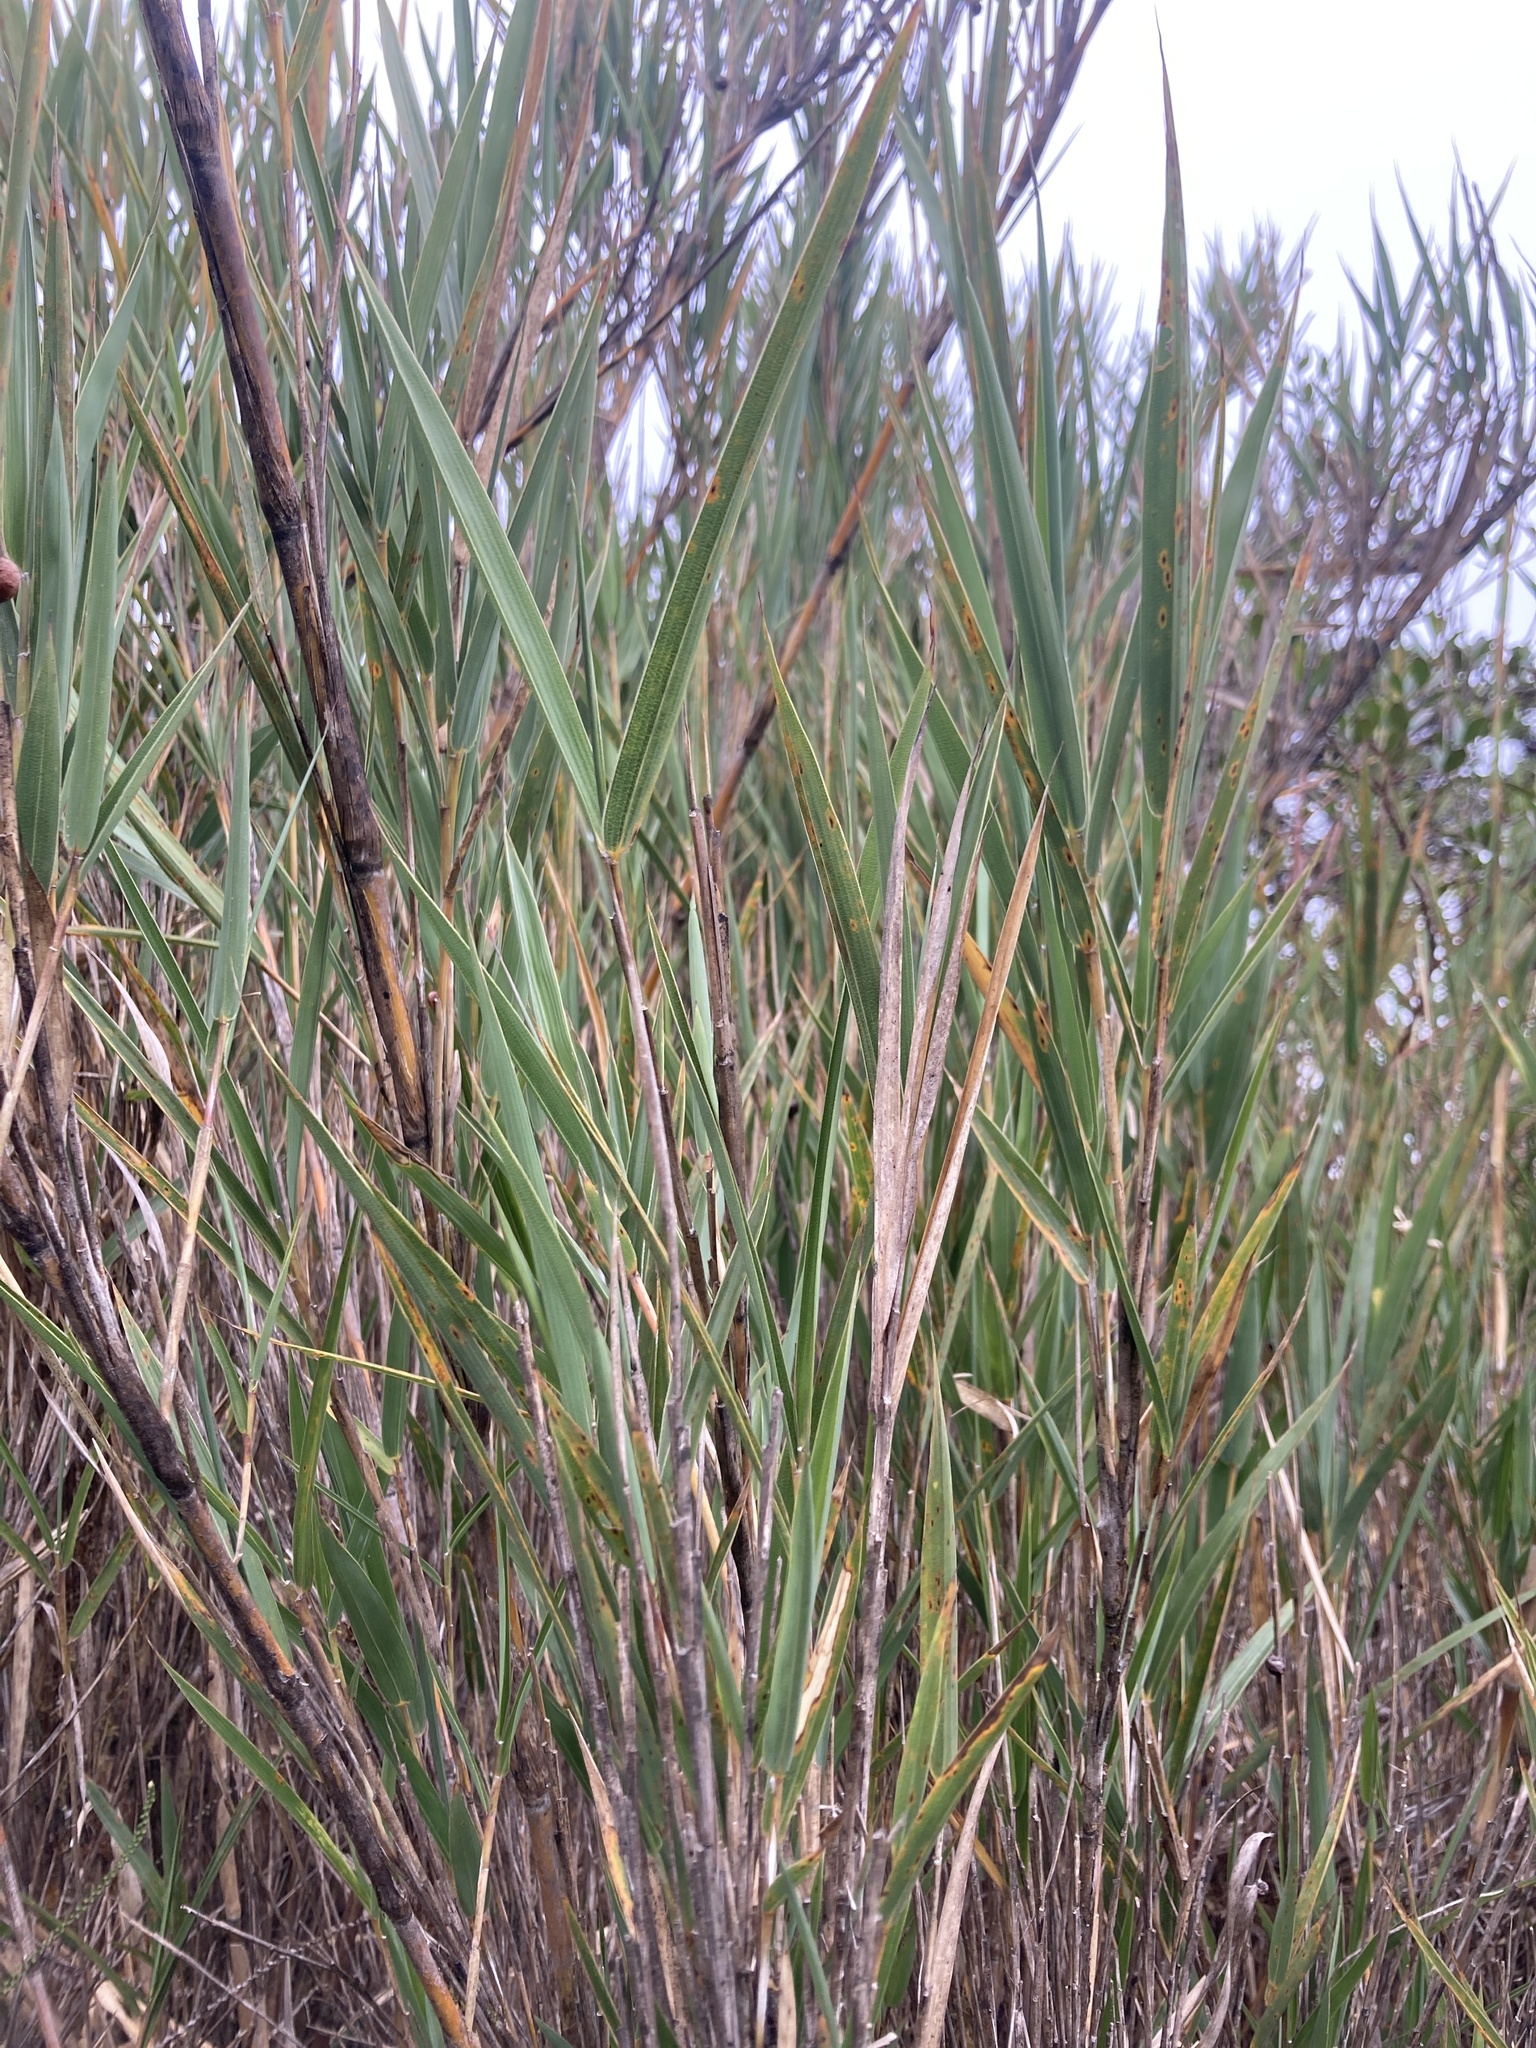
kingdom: Plantae
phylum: Tracheophyta
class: Liliopsida
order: Poales
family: Poaceae
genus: Chusquea
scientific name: Chusquea tessellata
